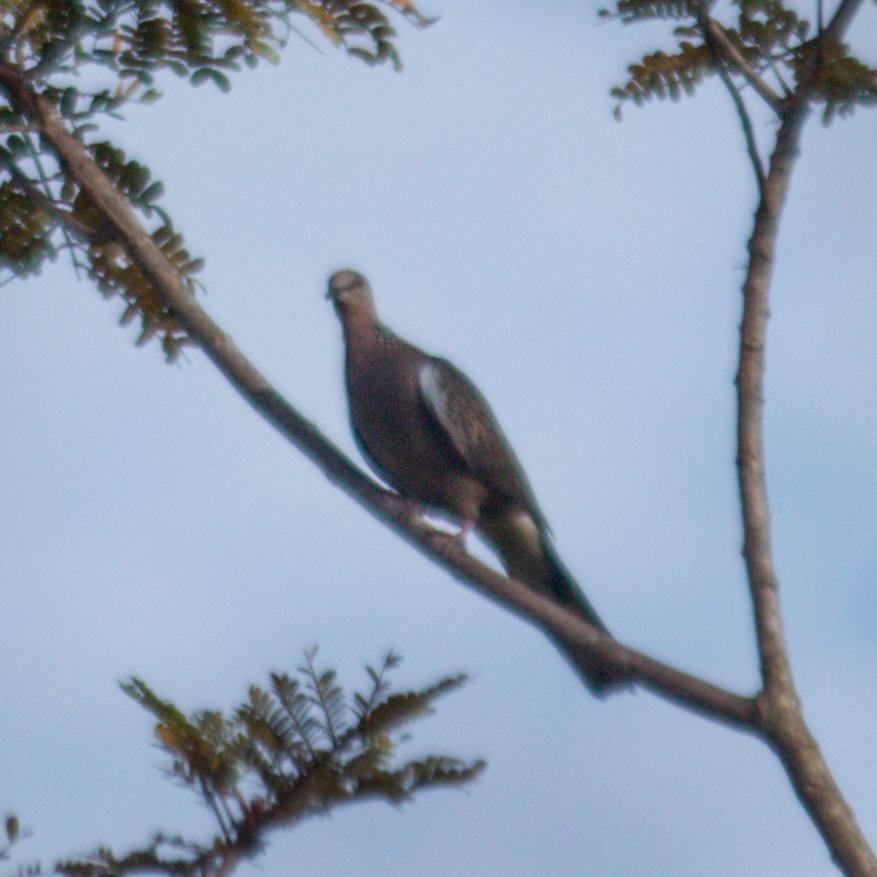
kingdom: Animalia
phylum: Chordata
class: Aves
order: Columbiformes
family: Columbidae
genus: Spilopelia
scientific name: Spilopelia chinensis
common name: Spotted dove
